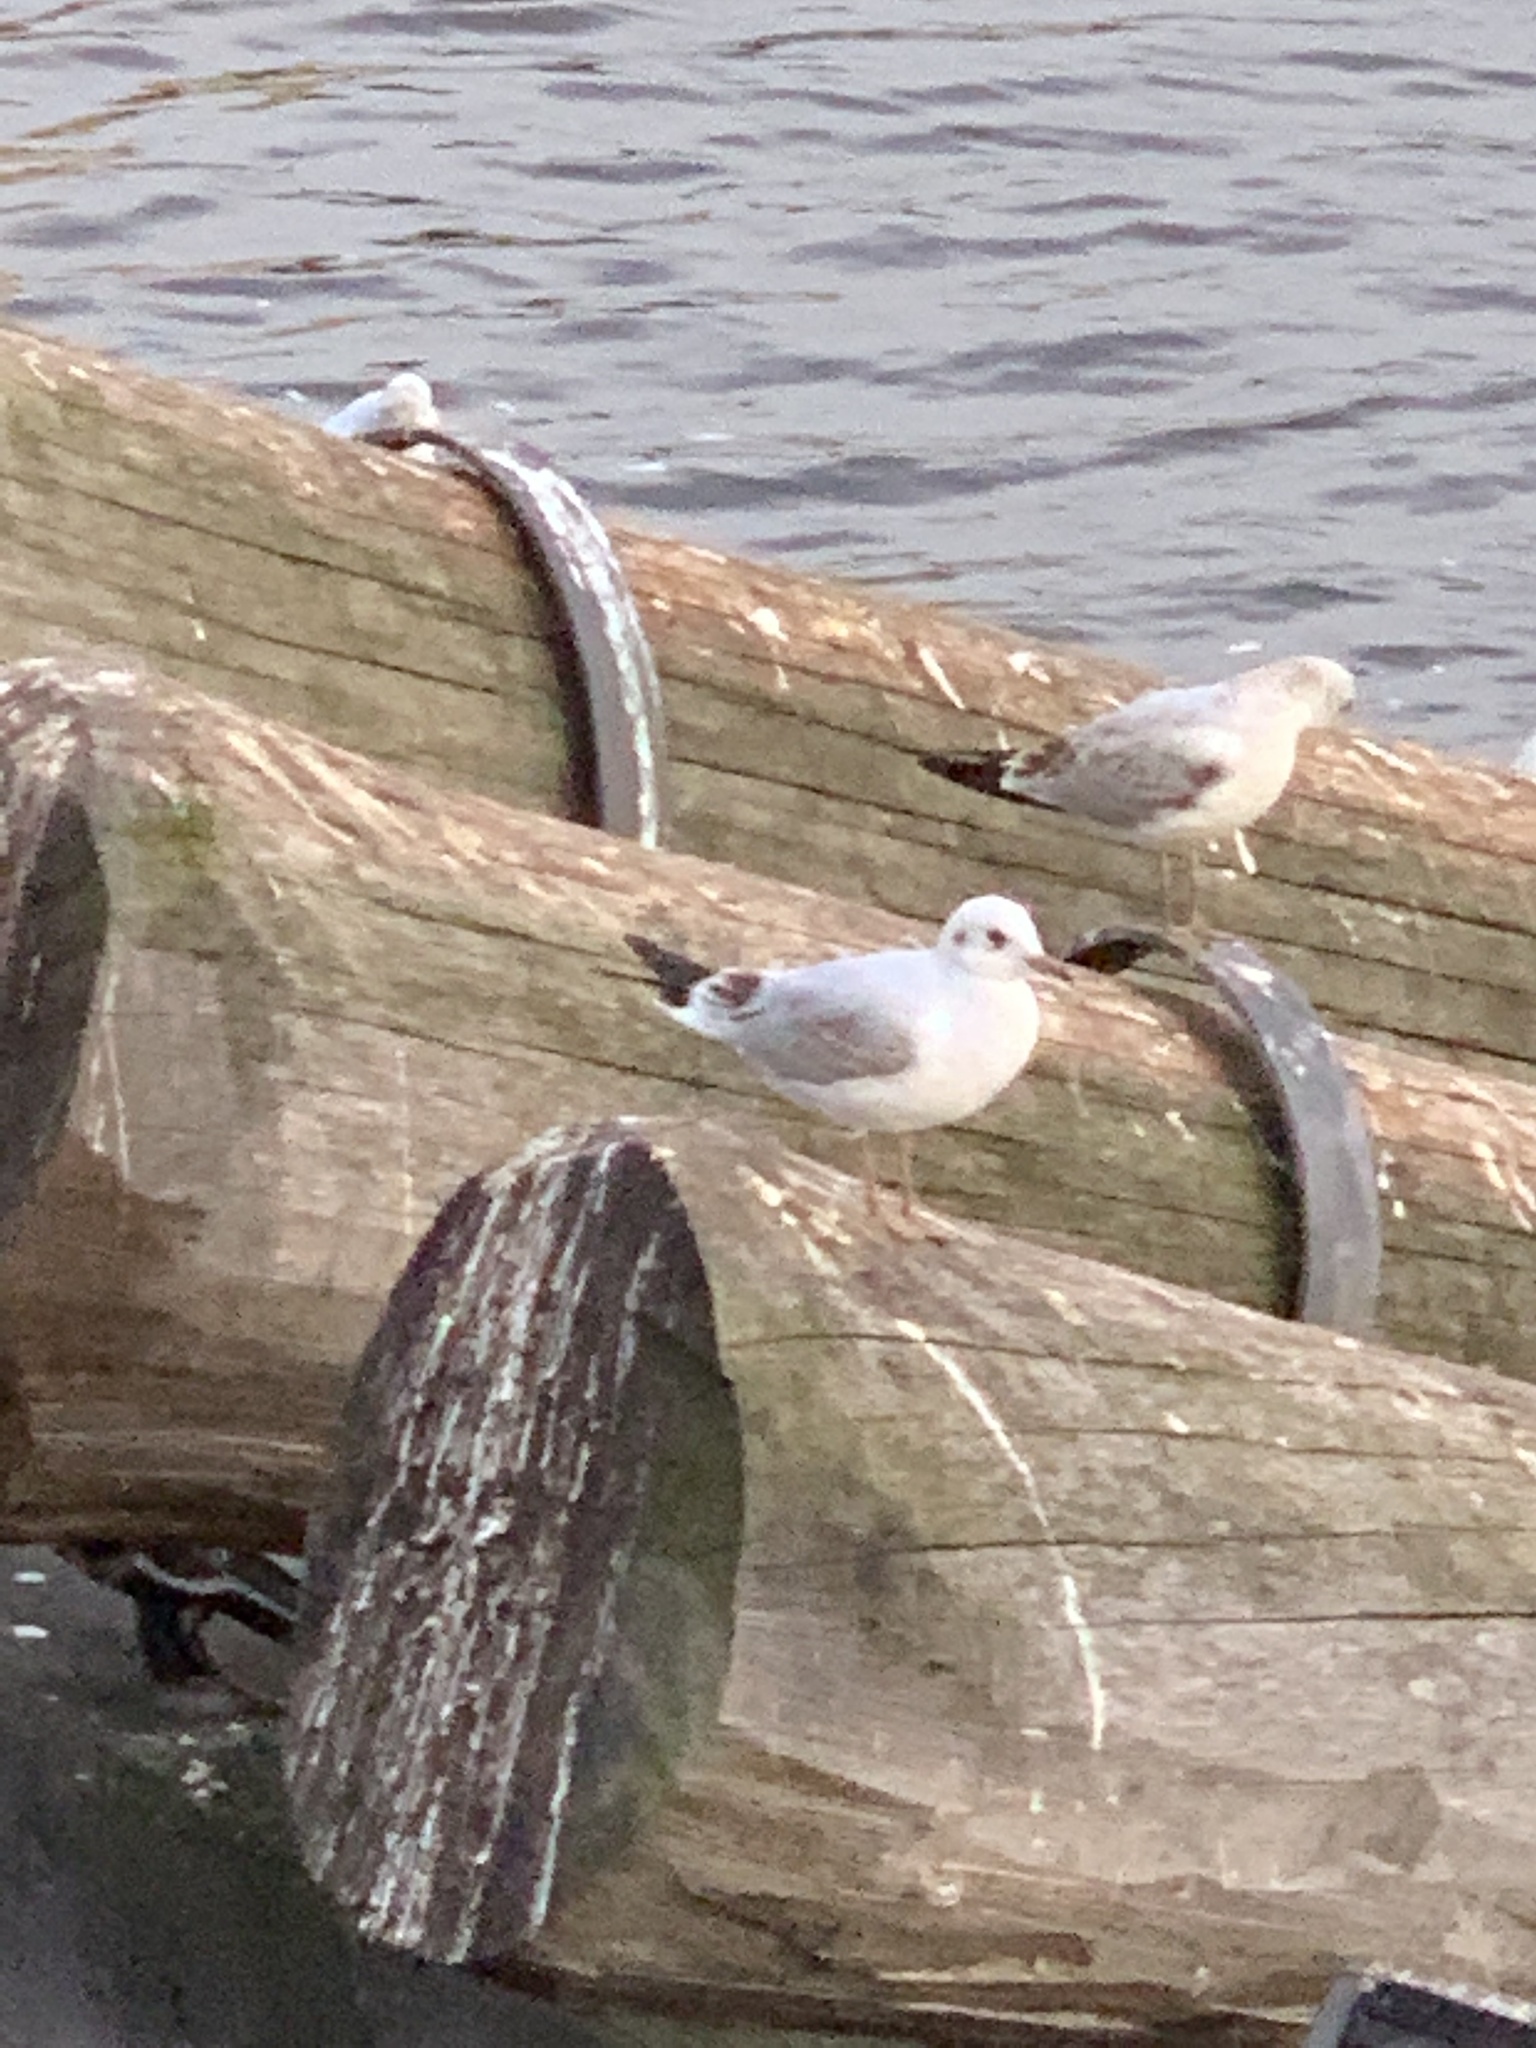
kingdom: Animalia
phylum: Chordata
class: Aves
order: Charadriiformes
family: Laridae
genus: Chroicocephalus
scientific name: Chroicocephalus ridibundus
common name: Black-headed gull
